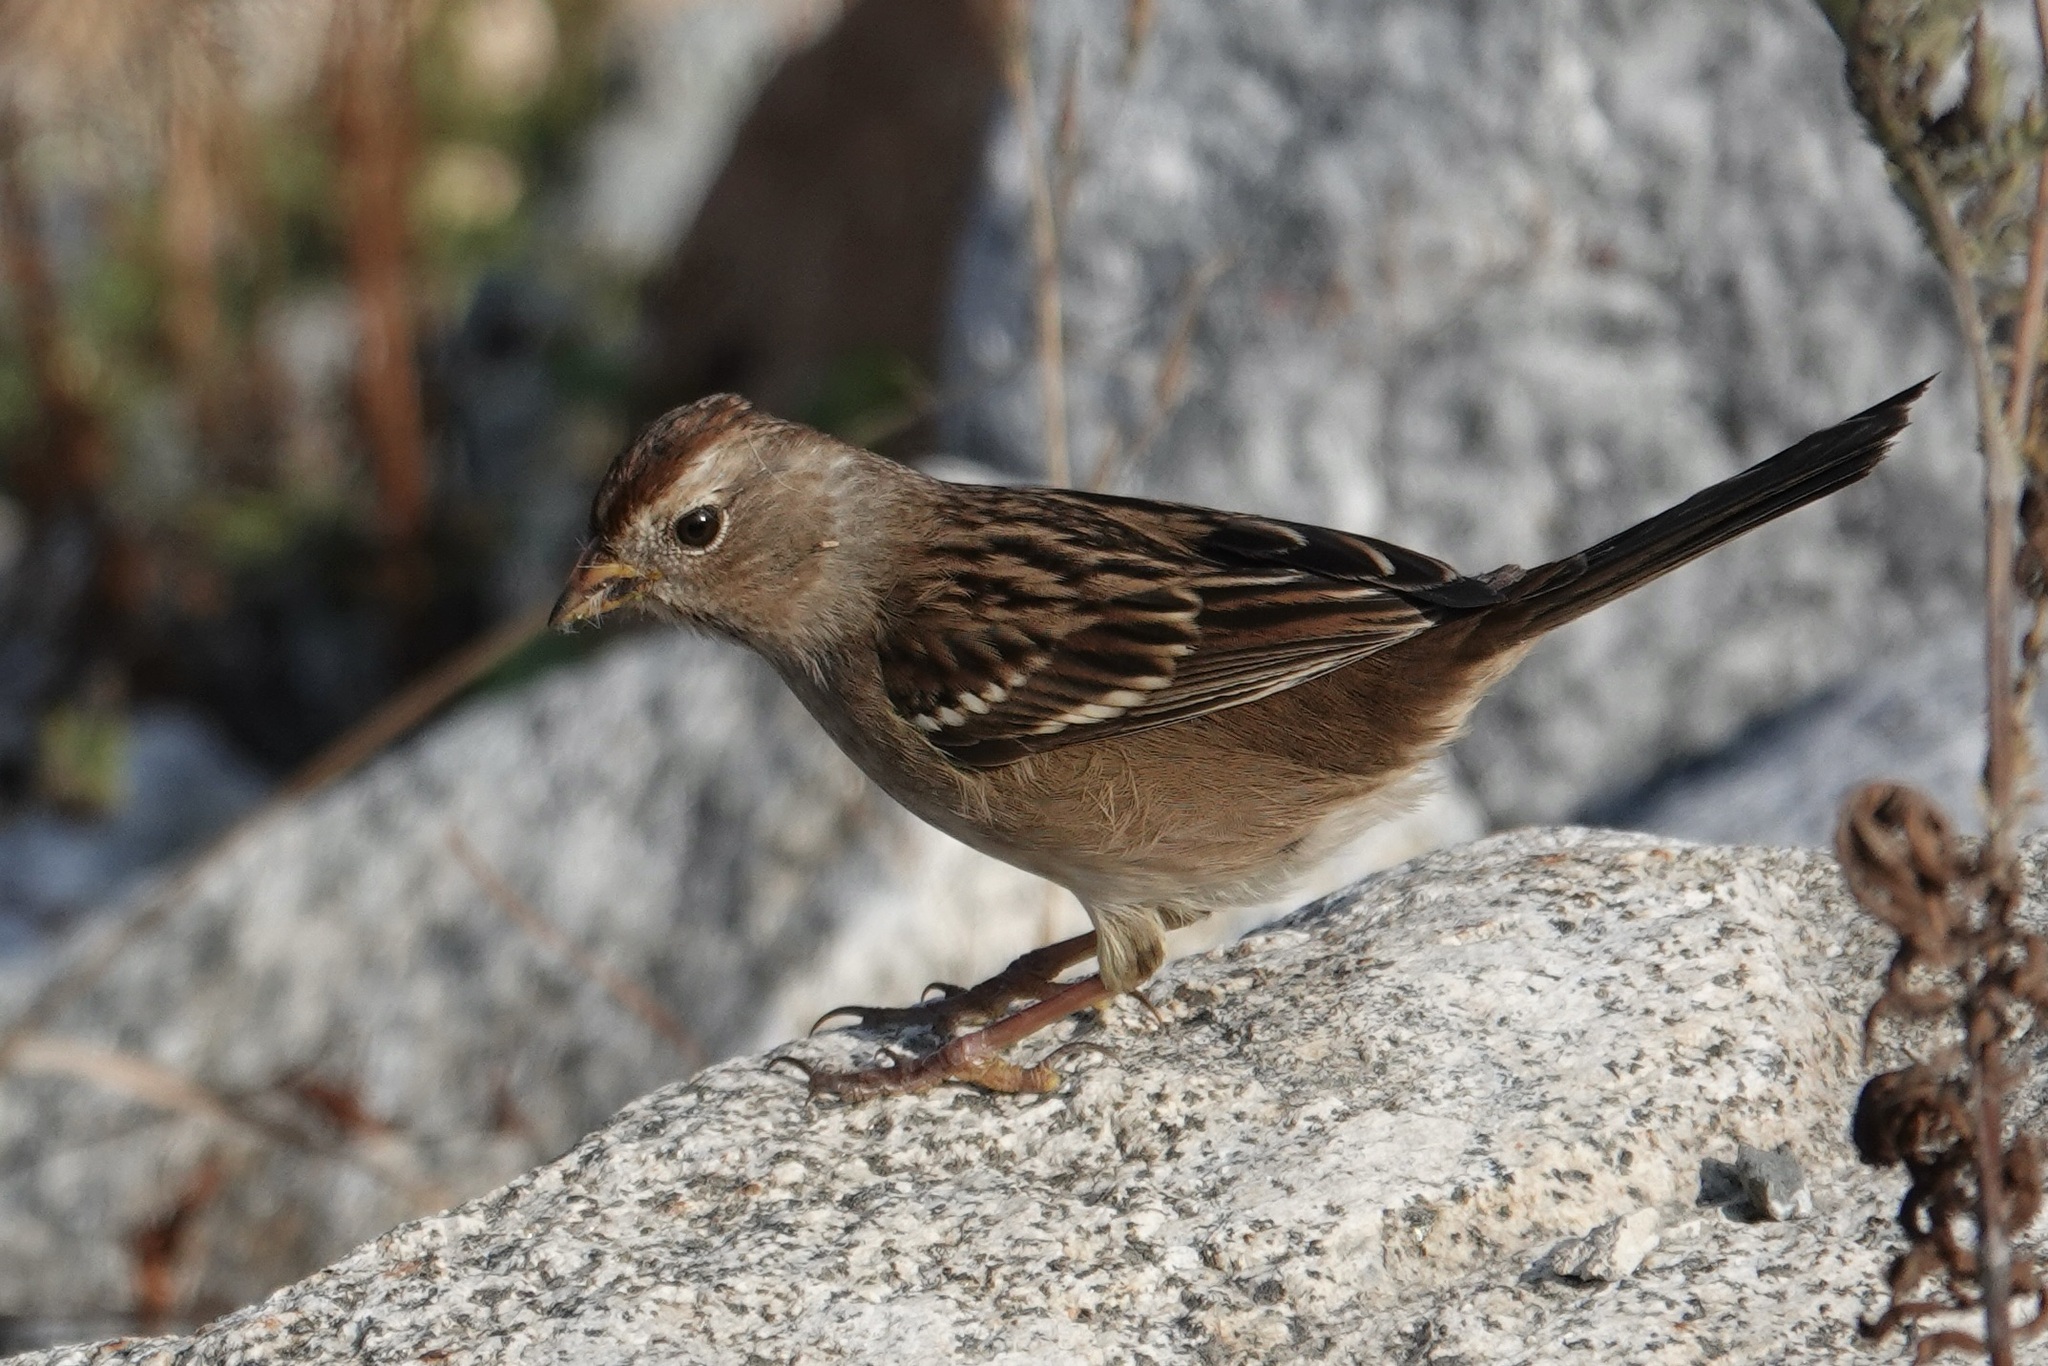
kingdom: Animalia
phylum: Chordata
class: Aves
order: Passeriformes
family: Passerellidae
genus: Zonotrichia
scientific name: Zonotrichia leucophrys
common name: White-crowned sparrow
